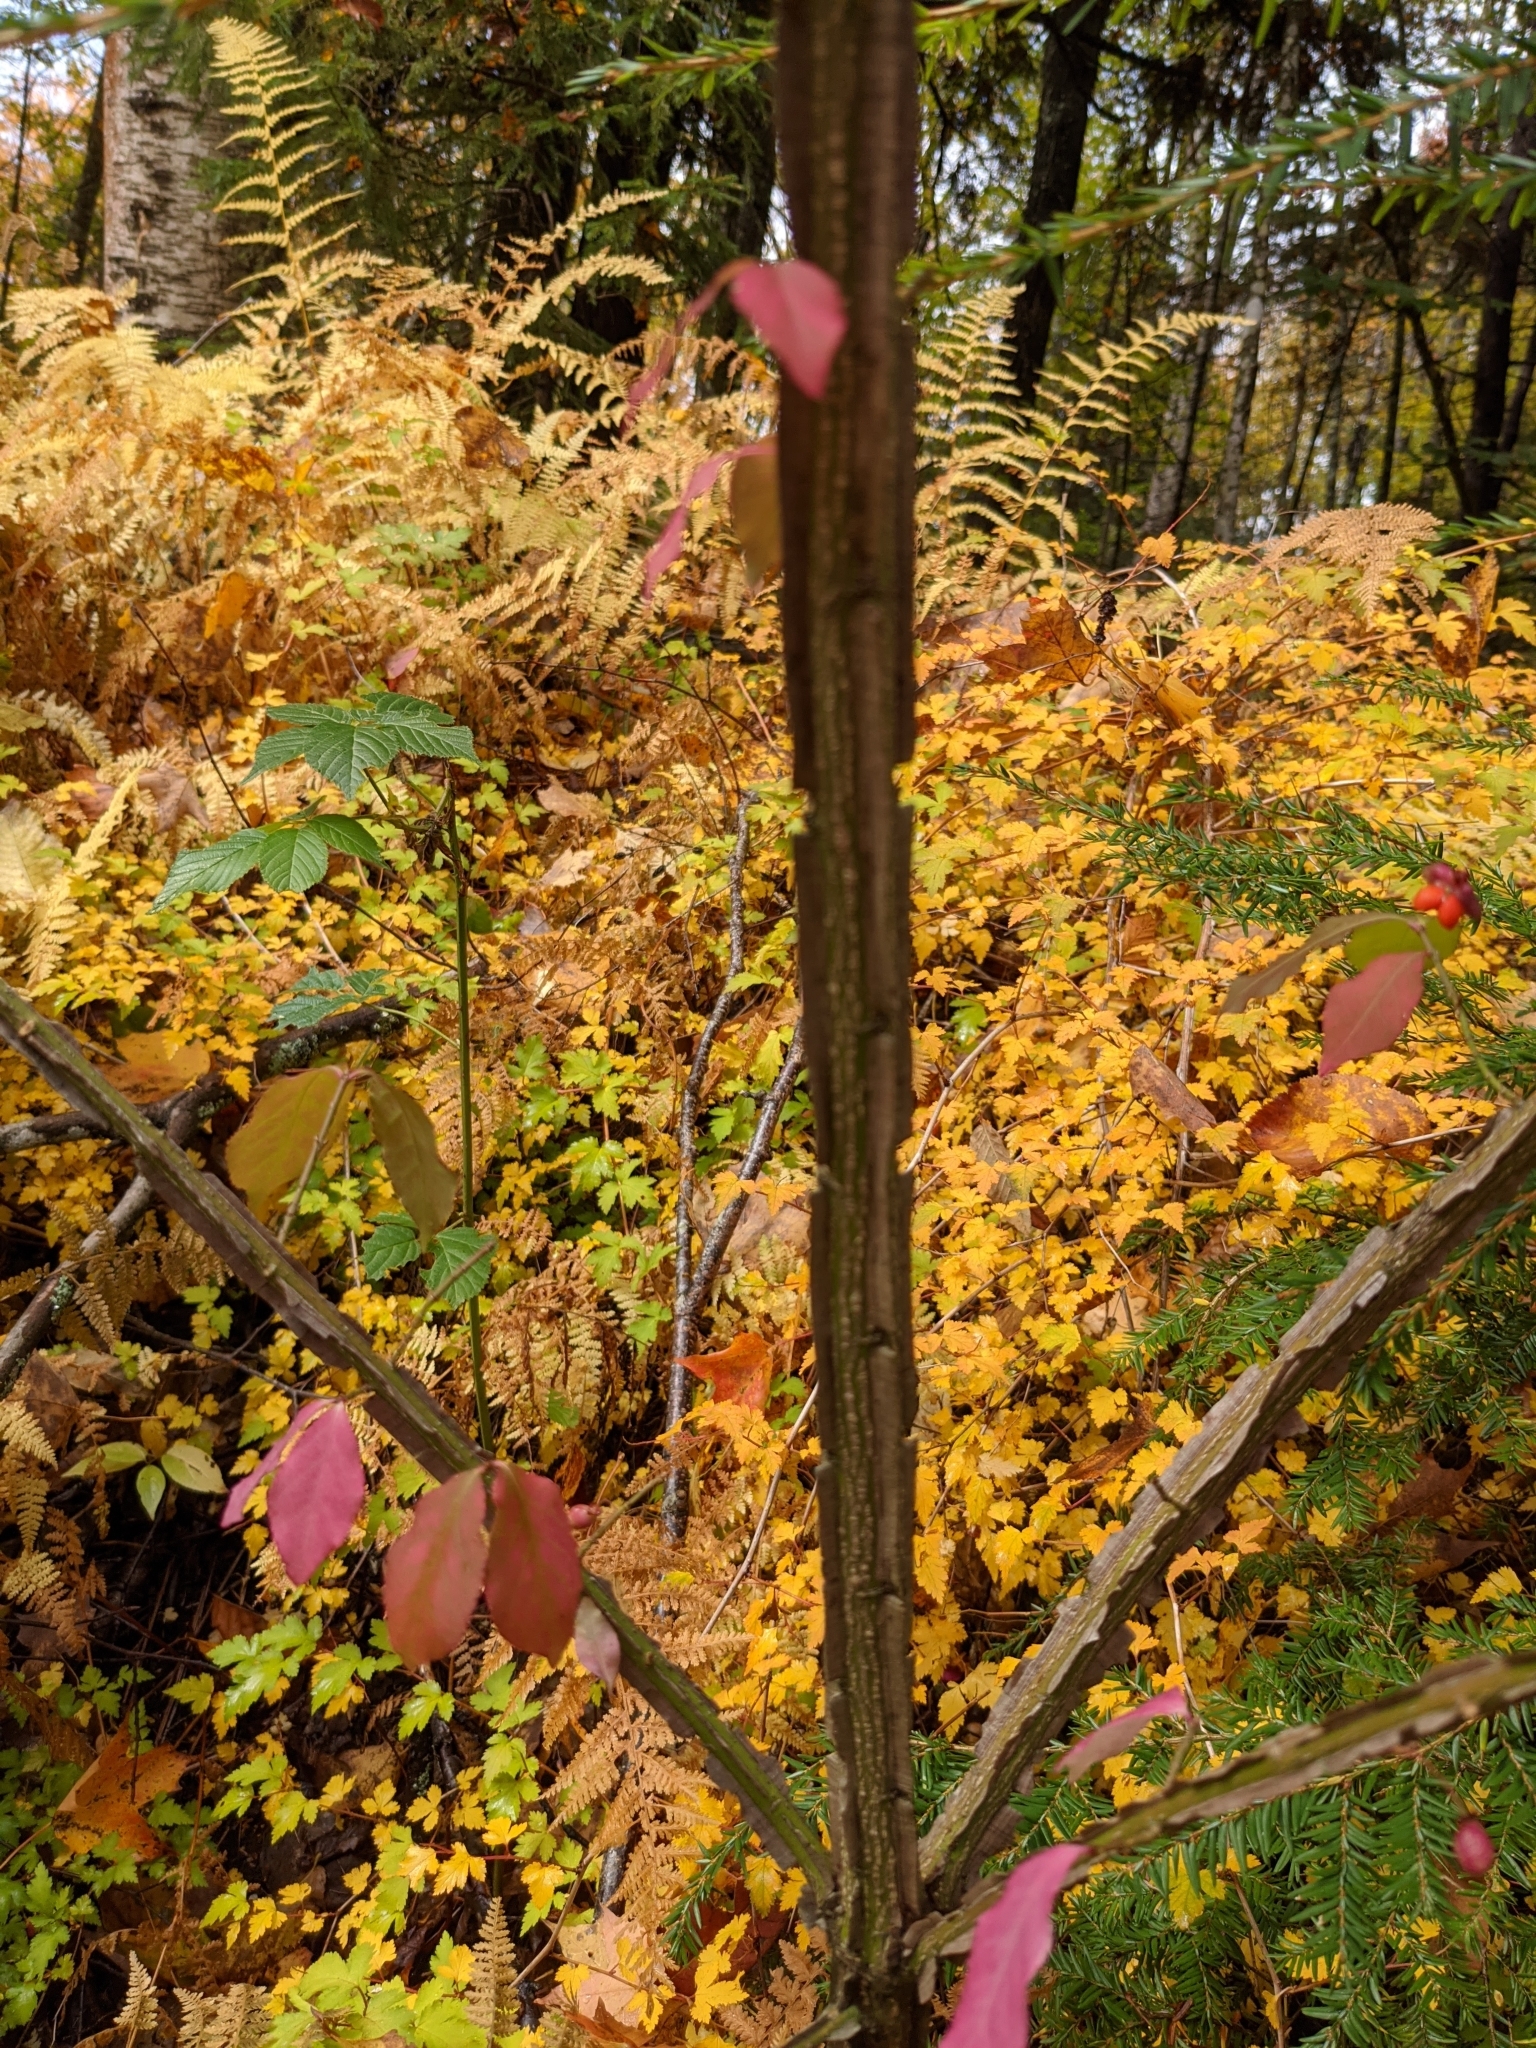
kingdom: Plantae
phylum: Tracheophyta
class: Magnoliopsida
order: Celastrales
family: Celastraceae
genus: Euonymus
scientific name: Euonymus alatus
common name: Winged euonymus
